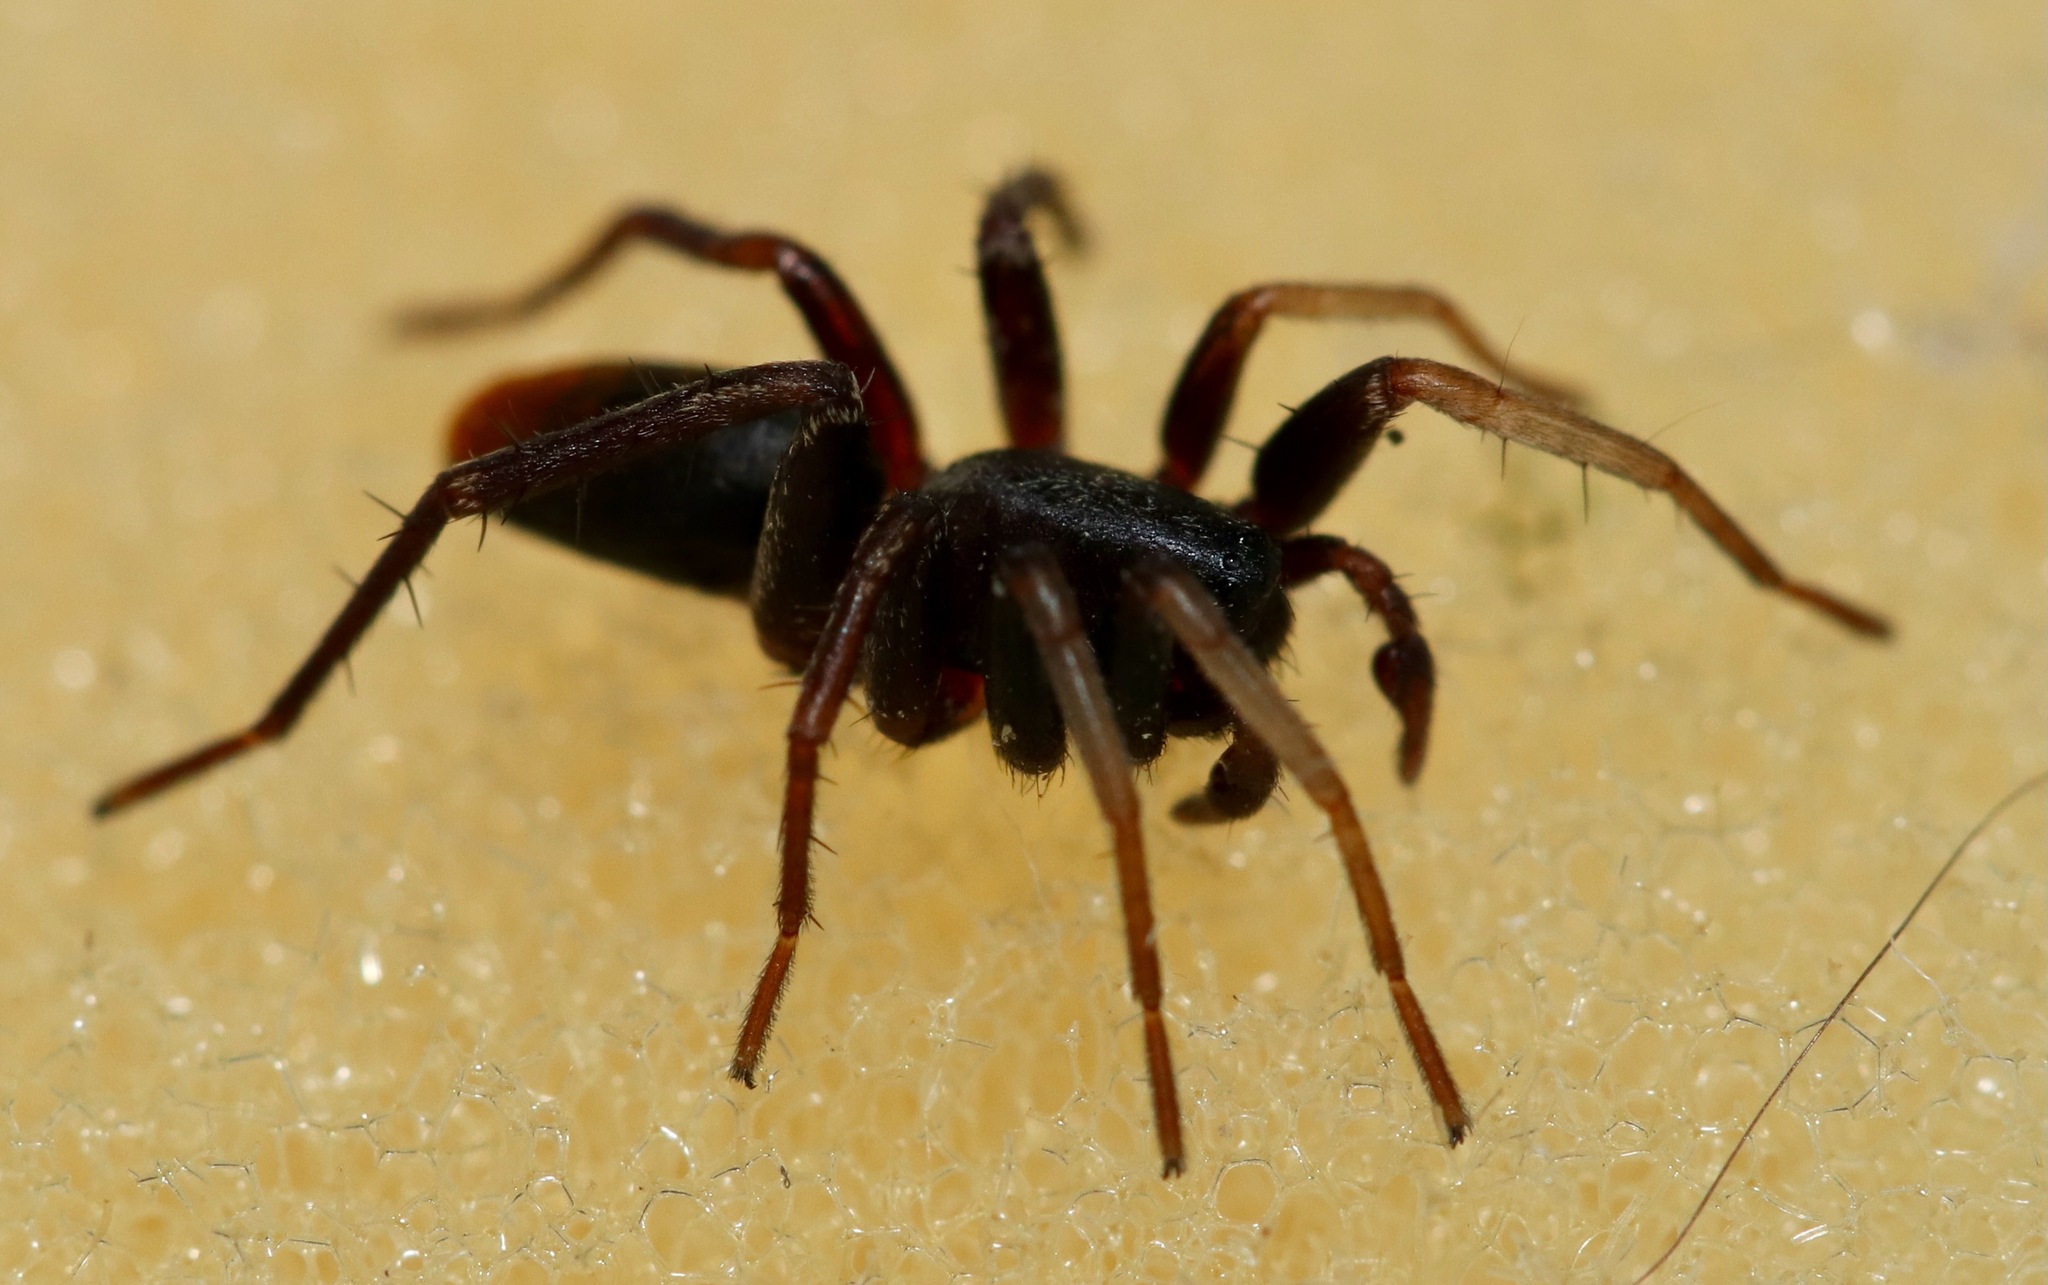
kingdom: Animalia
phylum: Arthropoda
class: Arachnida
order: Araneae
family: Corinnidae
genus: Castianeira
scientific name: Castianeira descripta
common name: Red-spotted ant-mimic sac spider
